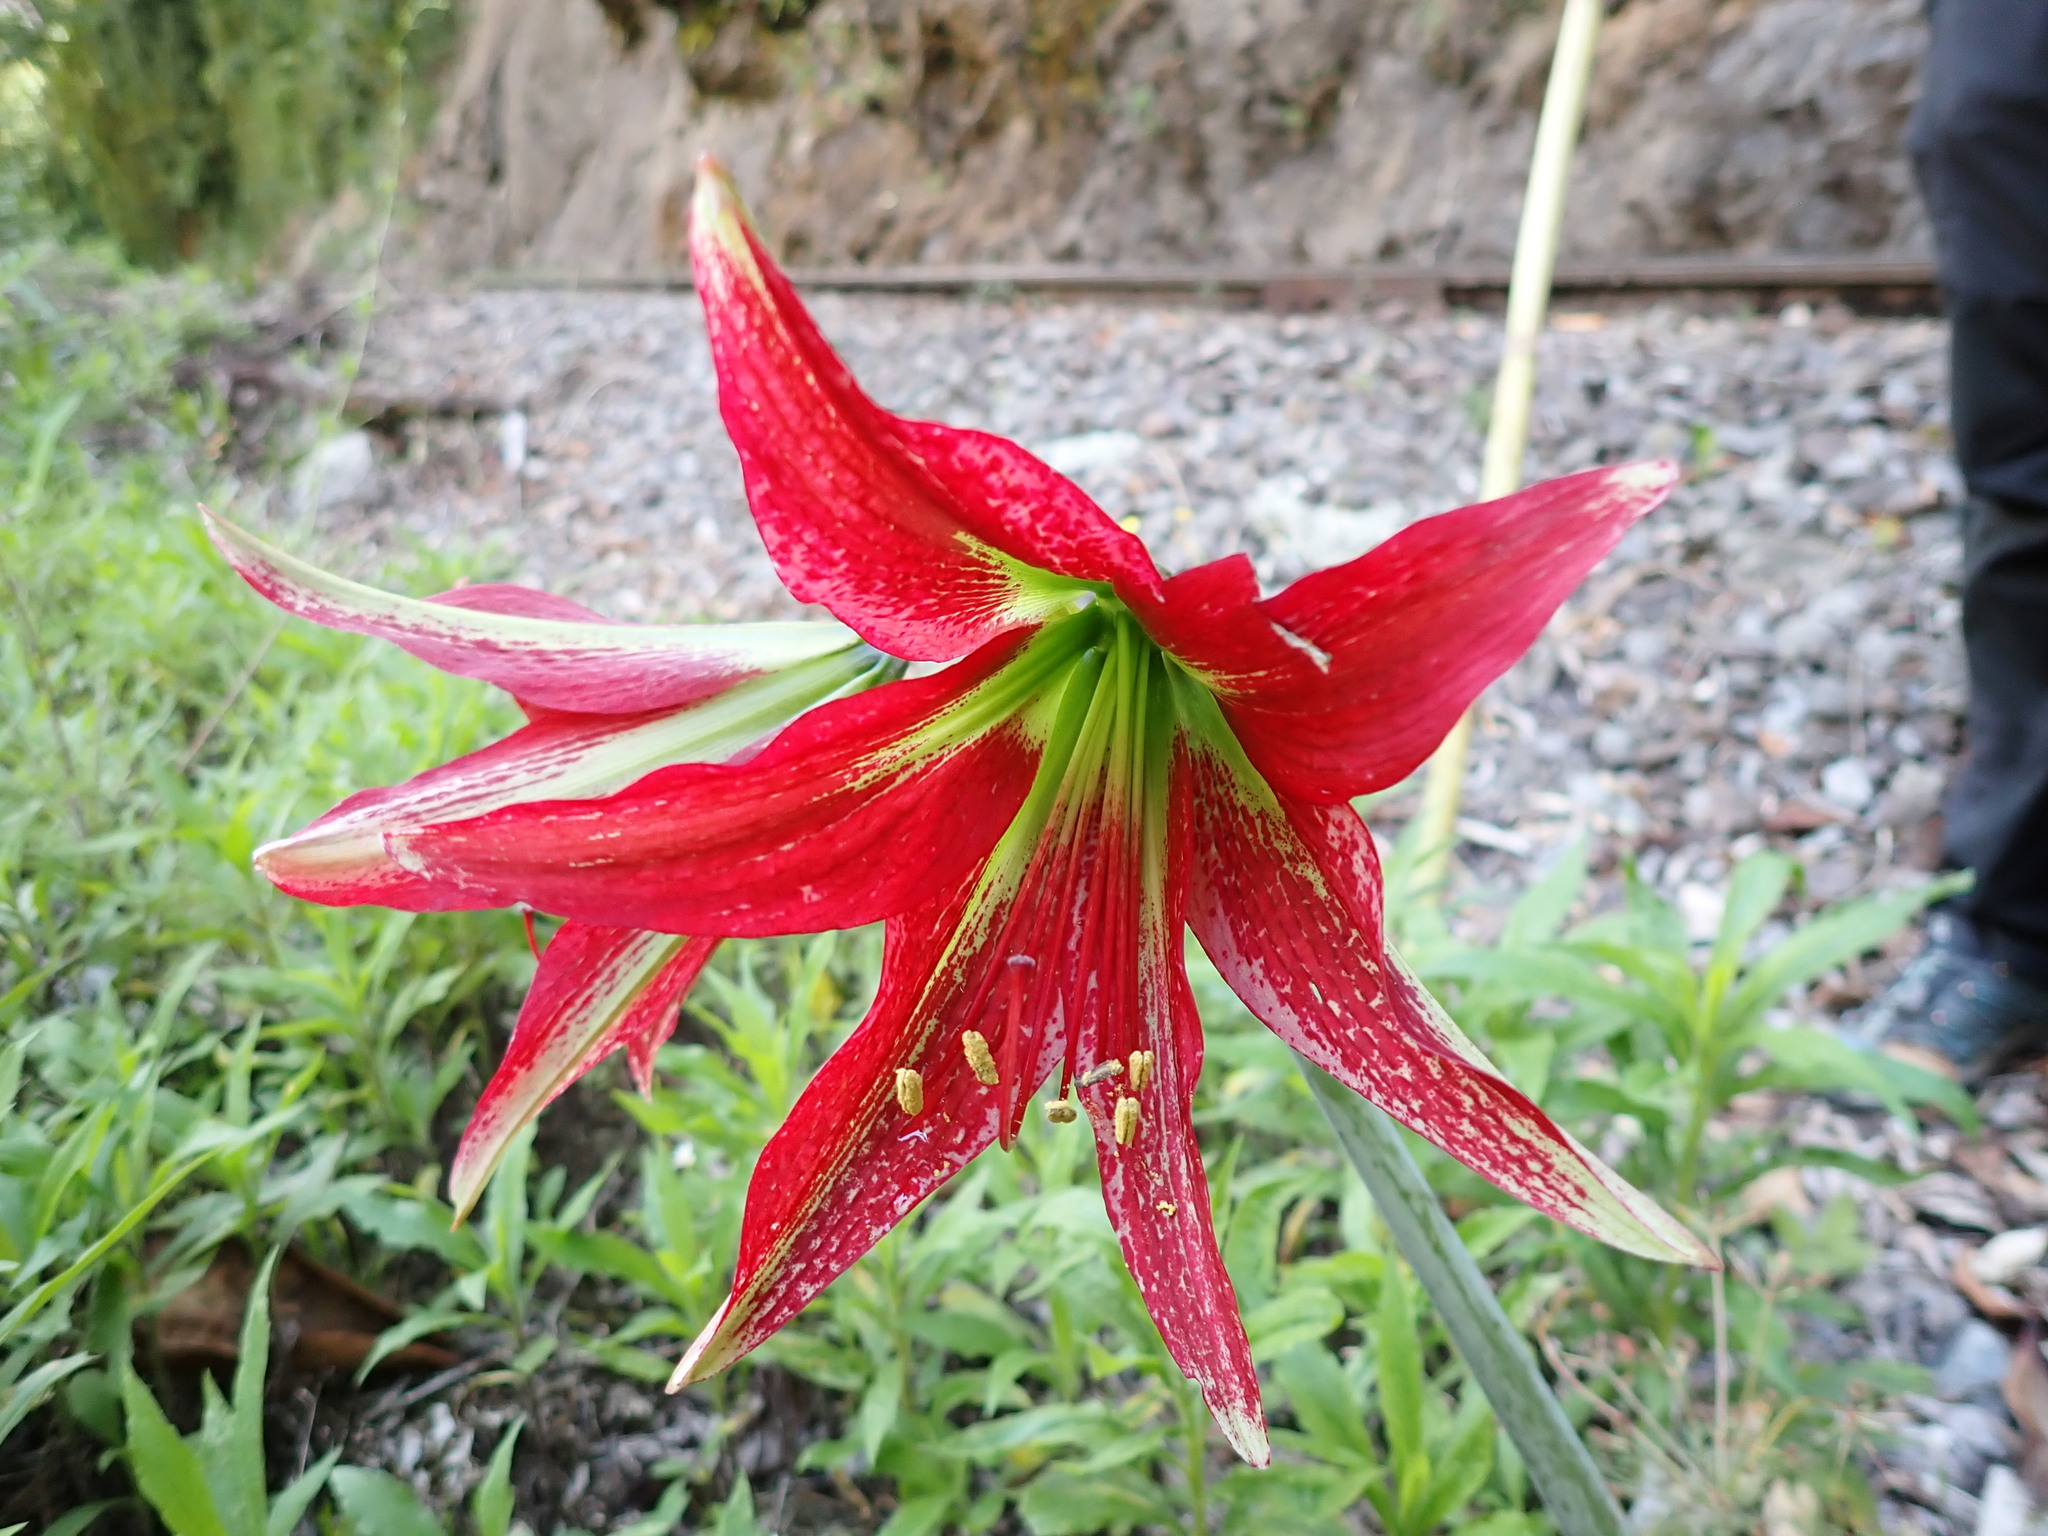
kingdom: Plantae
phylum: Tracheophyta
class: Liliopsida
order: Asparagales
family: Amaryllidaceae
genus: Hippeastrum
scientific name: Hippeastrum machupijchense
